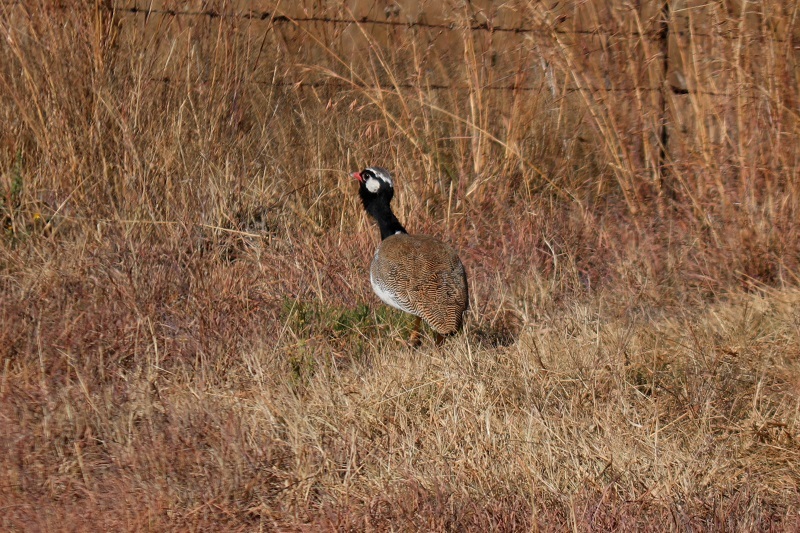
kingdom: Animalia
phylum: Chordata
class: Aves
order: Otidiformes
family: Otididae
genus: Afrotis
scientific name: Afrotis afraoides
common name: Northern black korhaan
